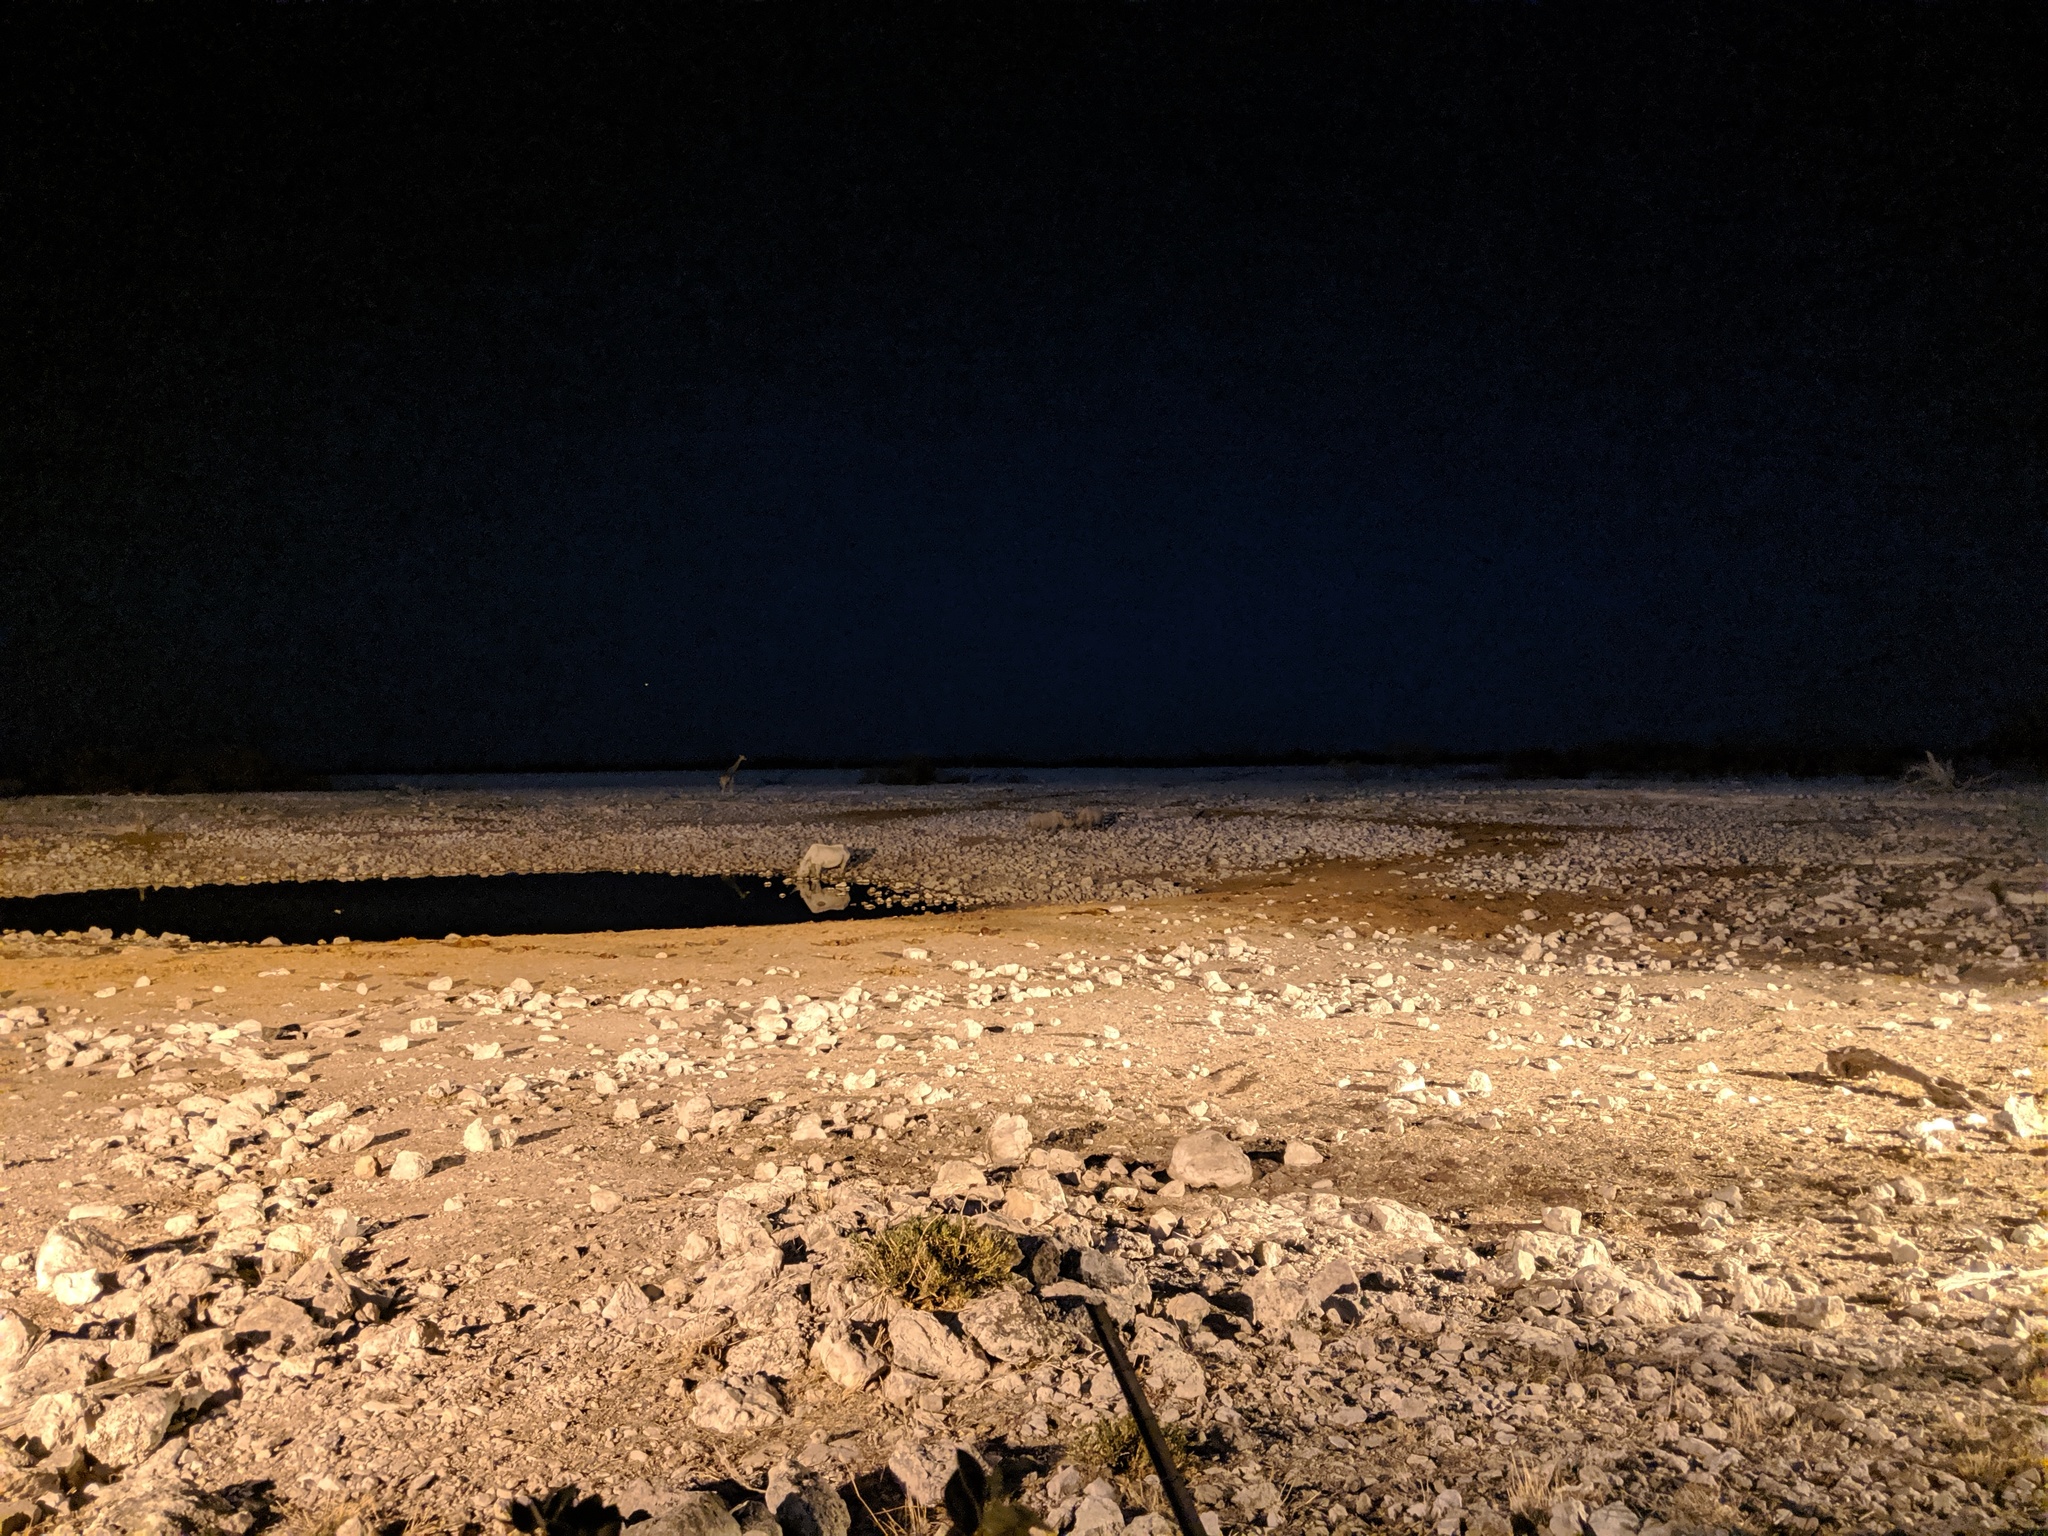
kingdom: Animalia
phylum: Chordata
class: Mammalia
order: Perissodactyla
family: Rhinocerotidae
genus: Diceros
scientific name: Diceros bicornis
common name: Black rhinoceros
